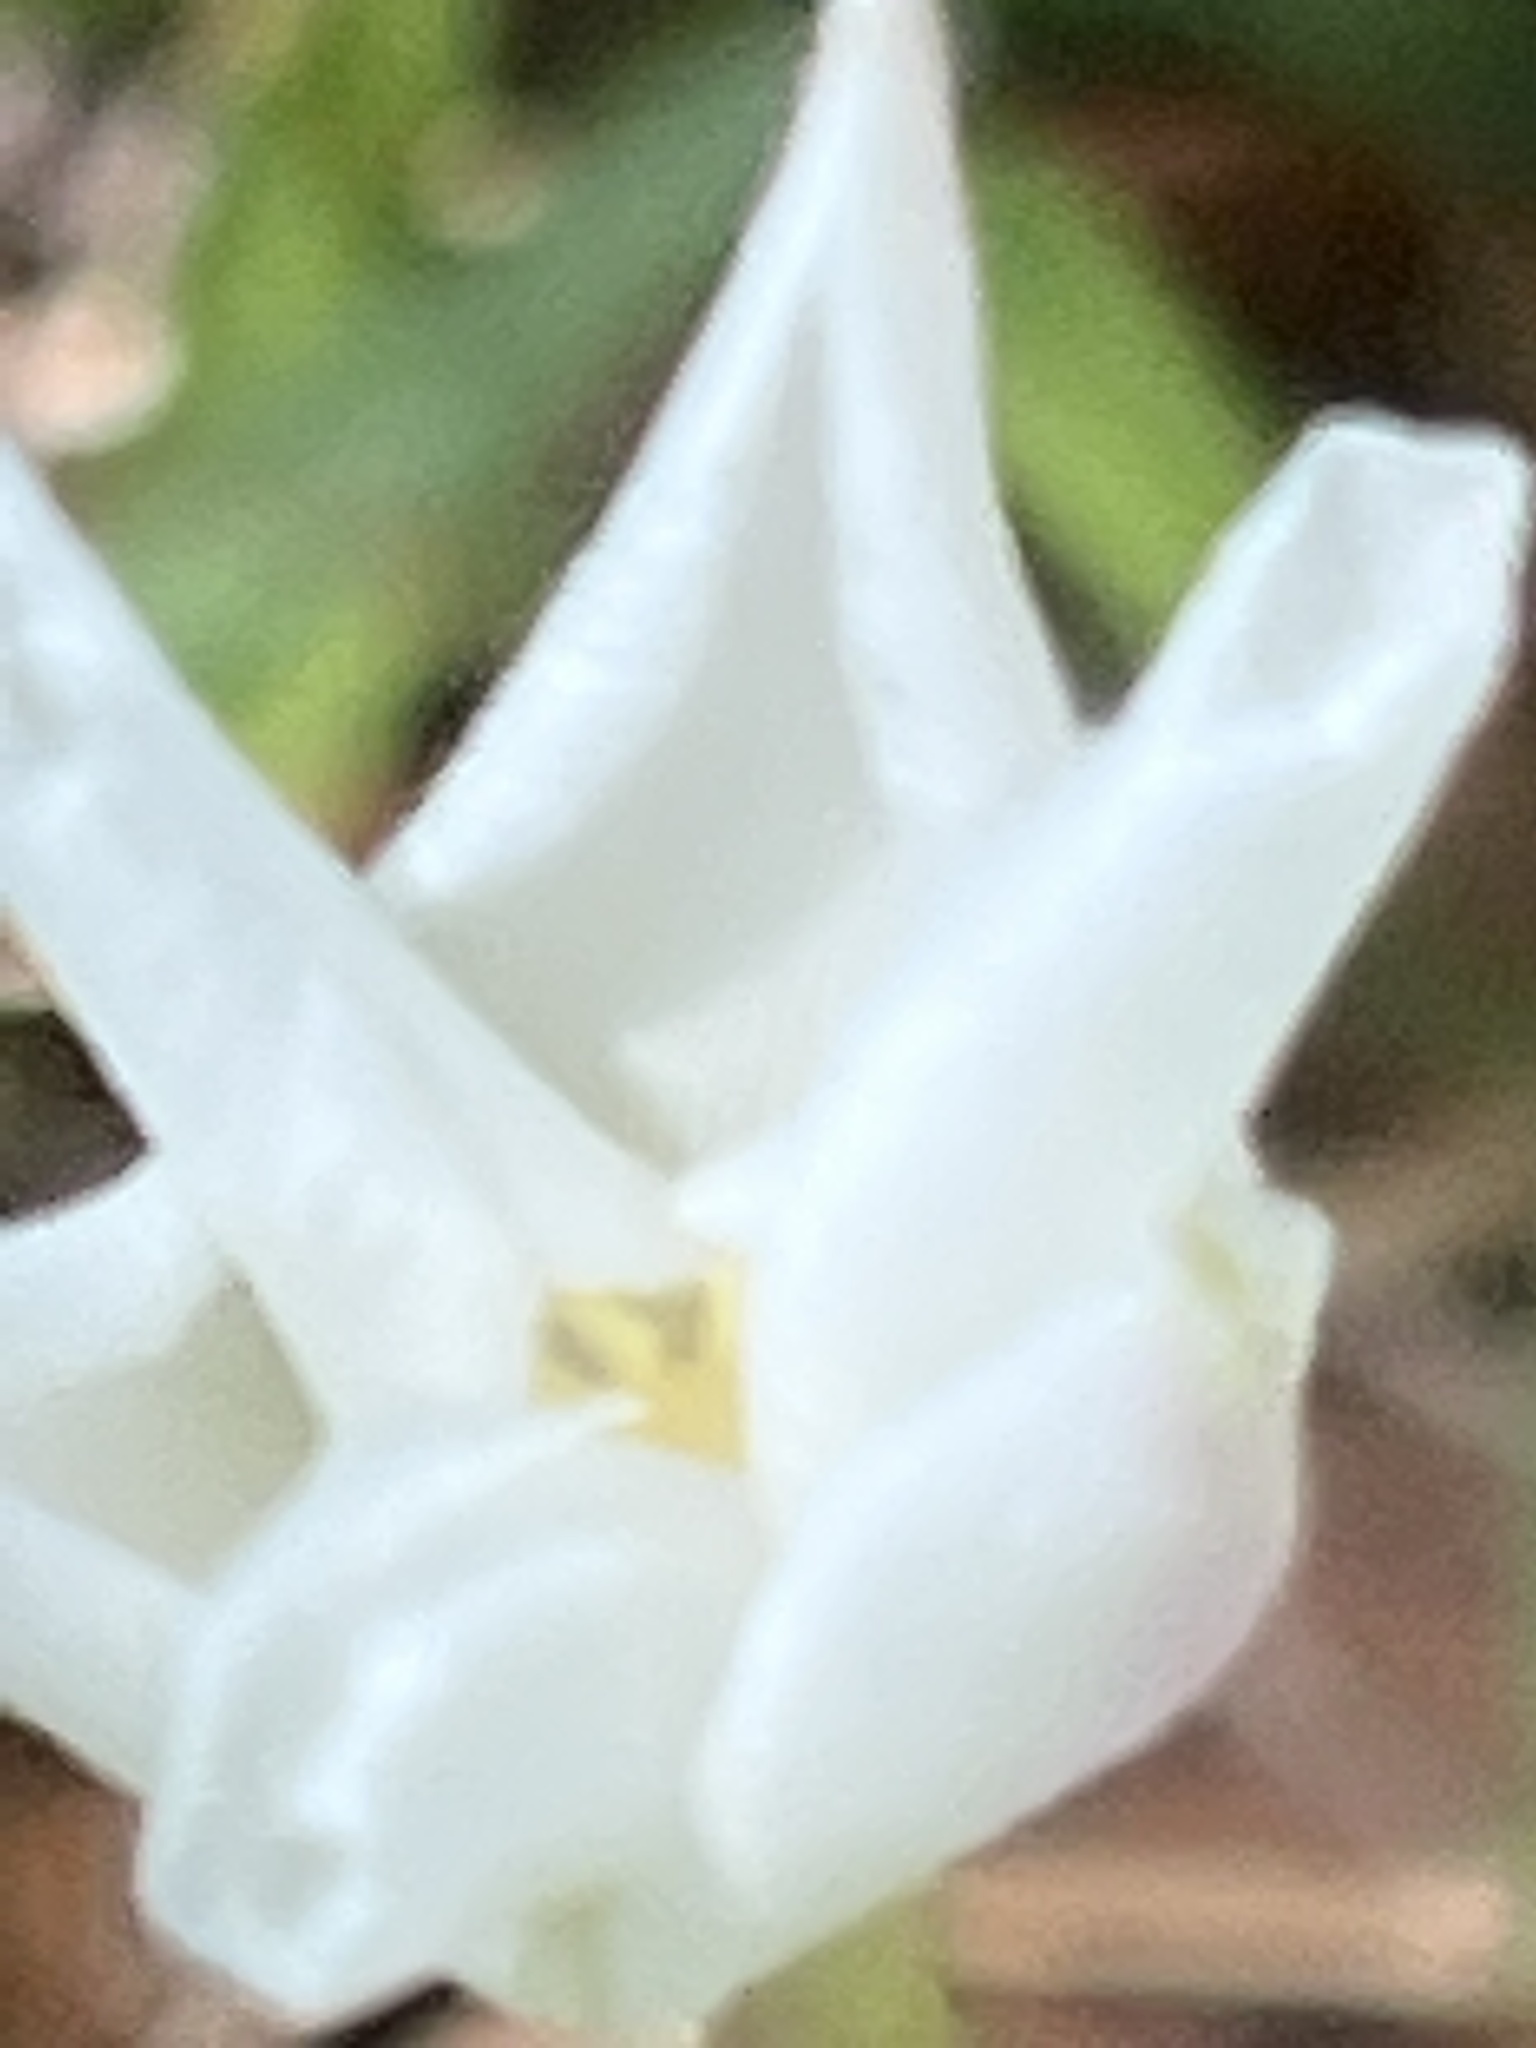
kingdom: Plantae
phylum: Tracheophyta
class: Liliopsida
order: Asparagales
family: Amaryllidaceae
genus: Zephyranthes
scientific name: Zephyranthes chlorosolen
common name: Evening rain-lily
